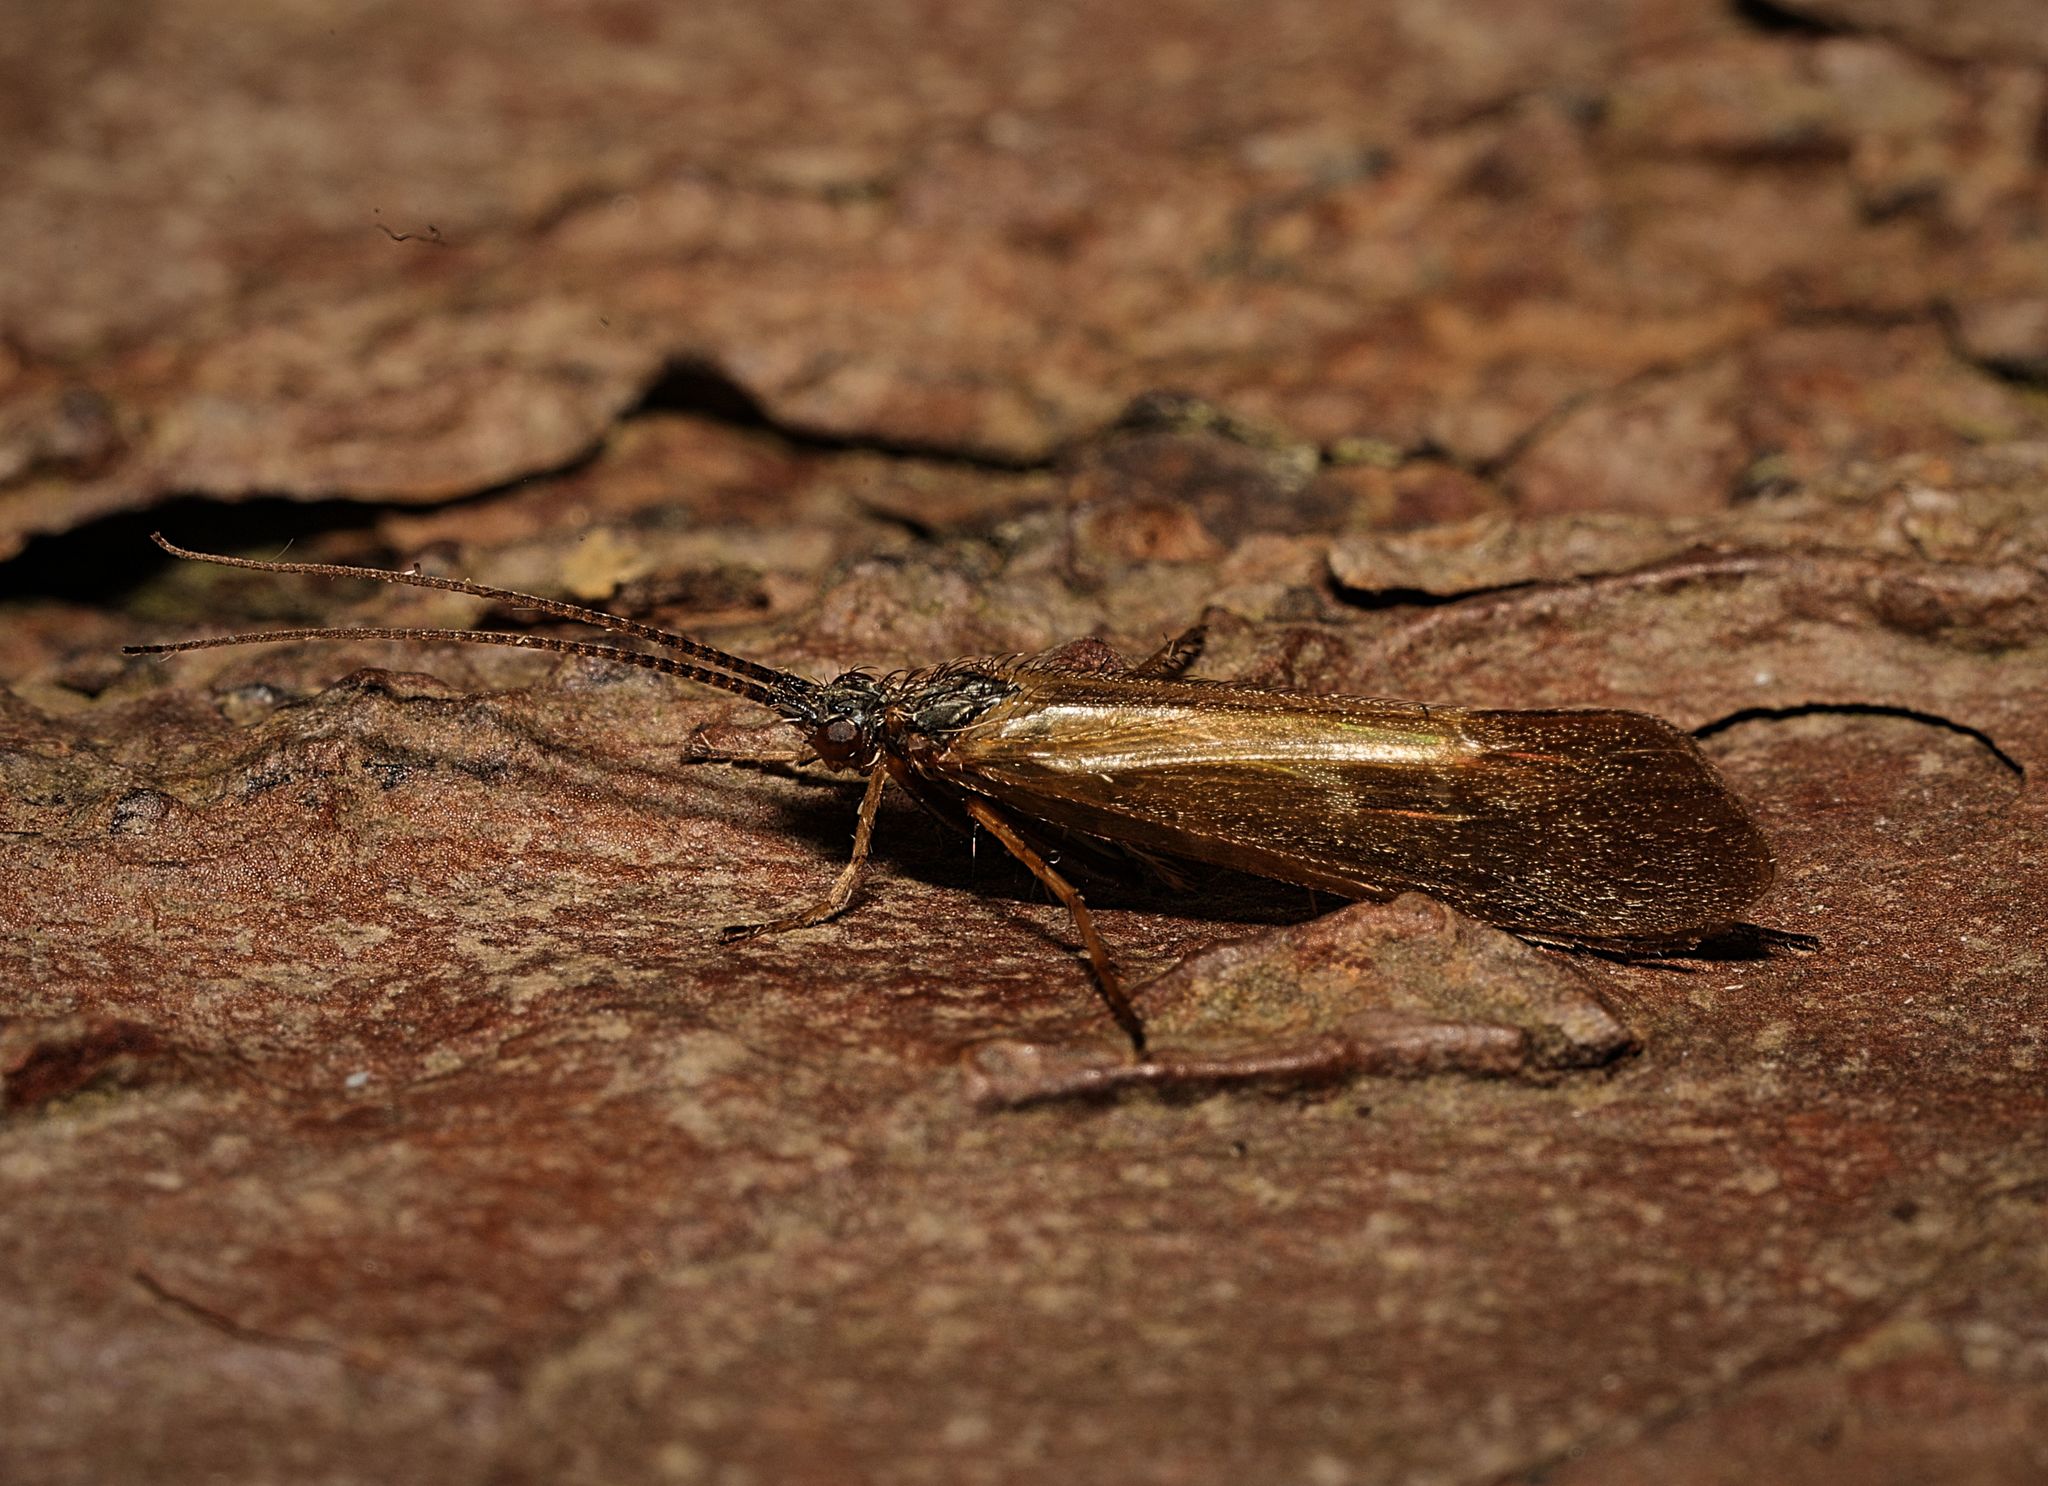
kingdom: Animalia
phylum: Arthropoda
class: Insecta
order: Trichoptera
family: Limnephilidae
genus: Limnephilus
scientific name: Limnephilus auricula
